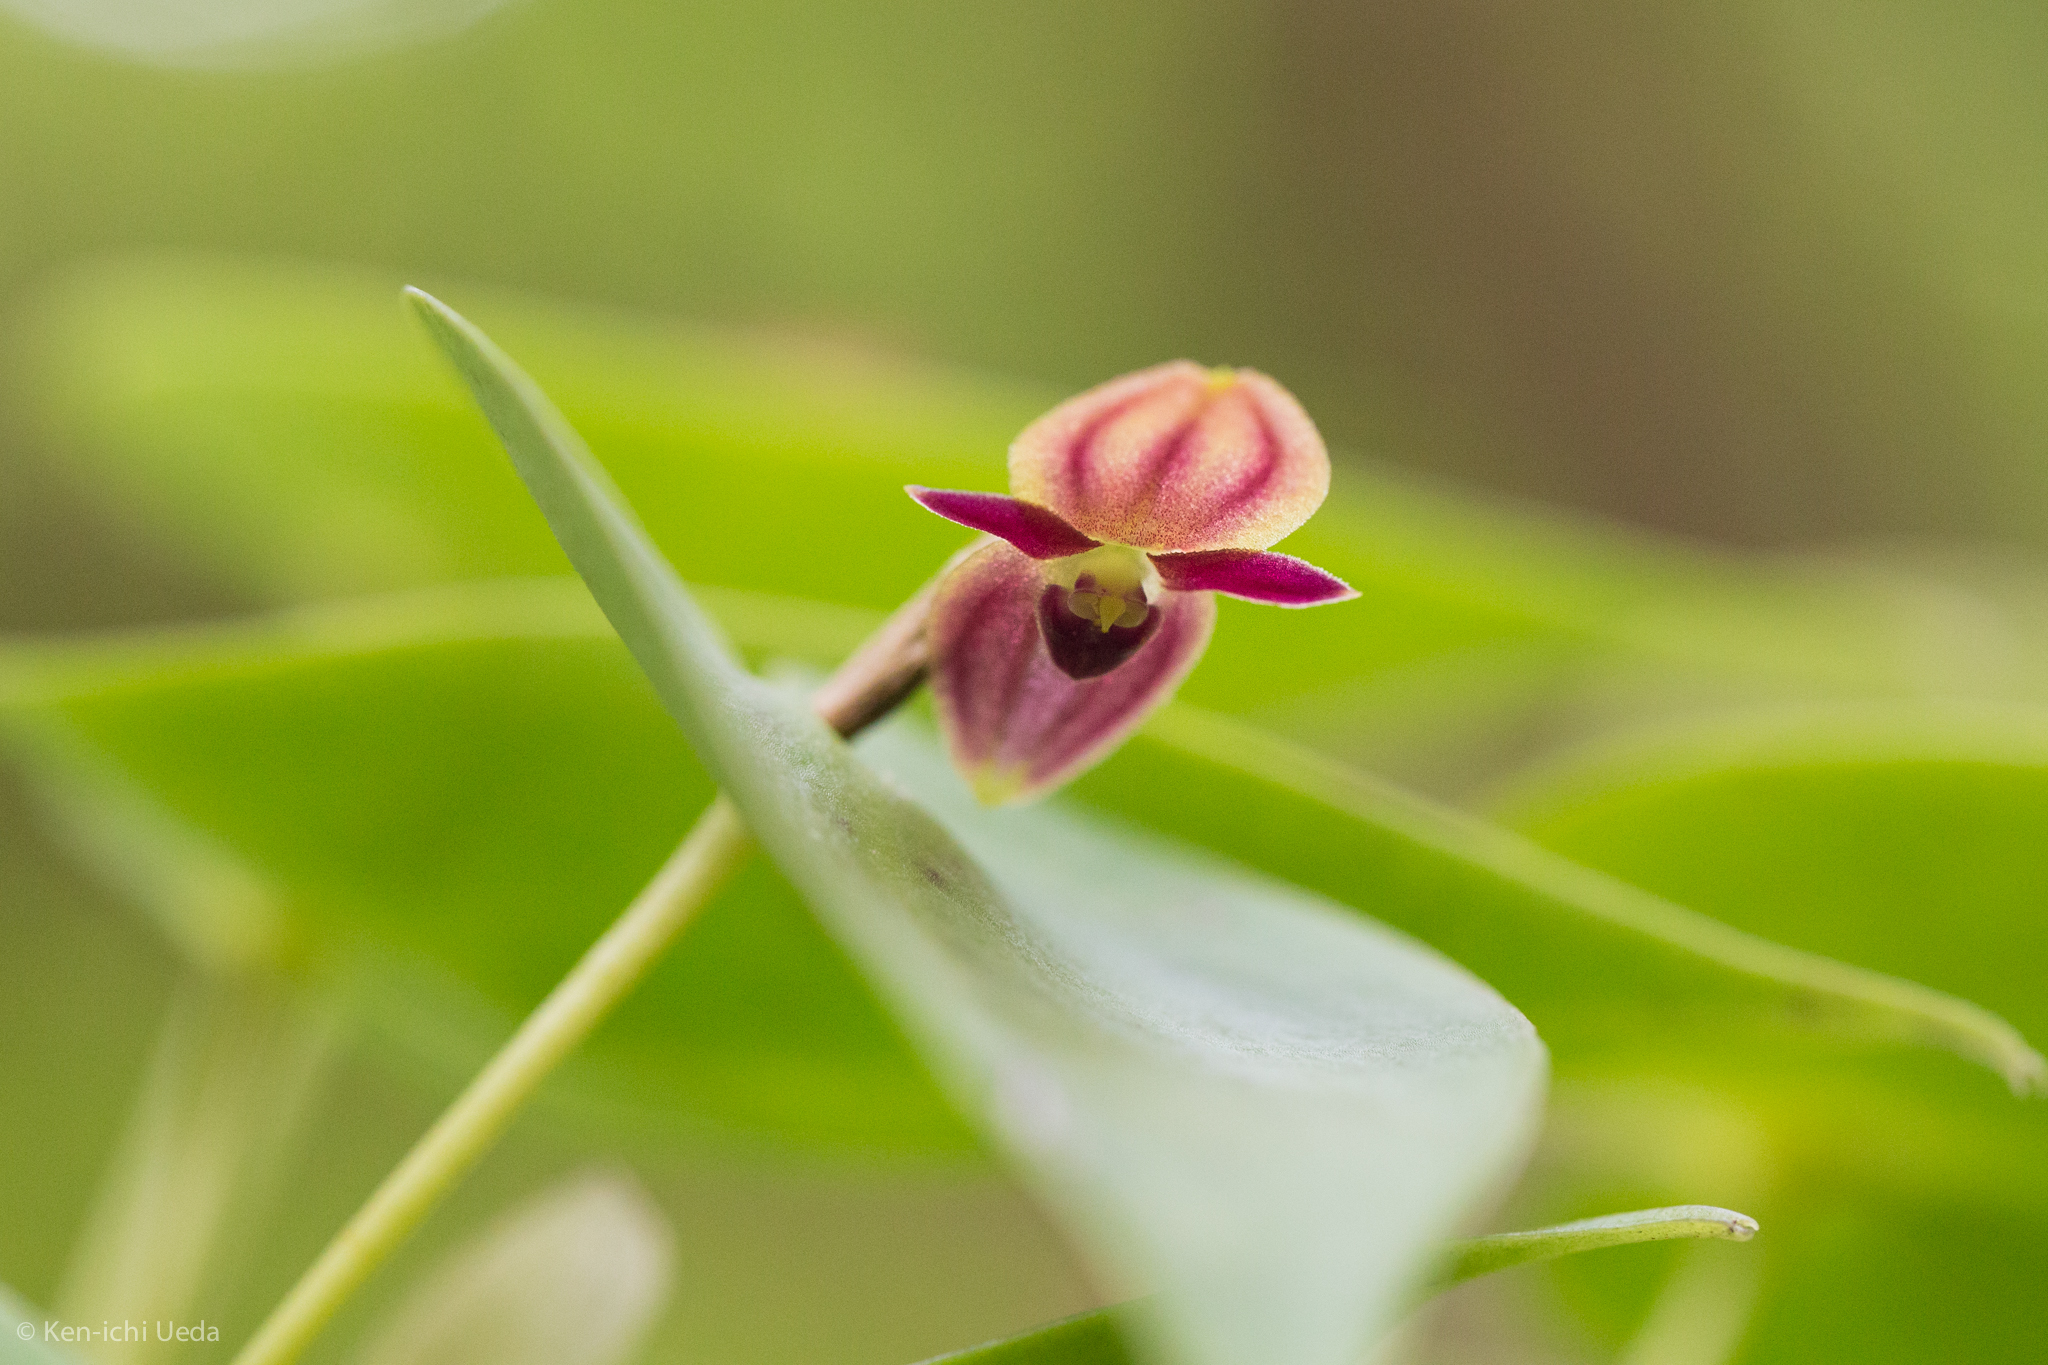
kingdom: Plantae
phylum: Tracheophyta
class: Liliopsida
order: Asparagales
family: Orchidaceae
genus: Pleurothallis
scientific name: Pleurothallis phyllocardia
